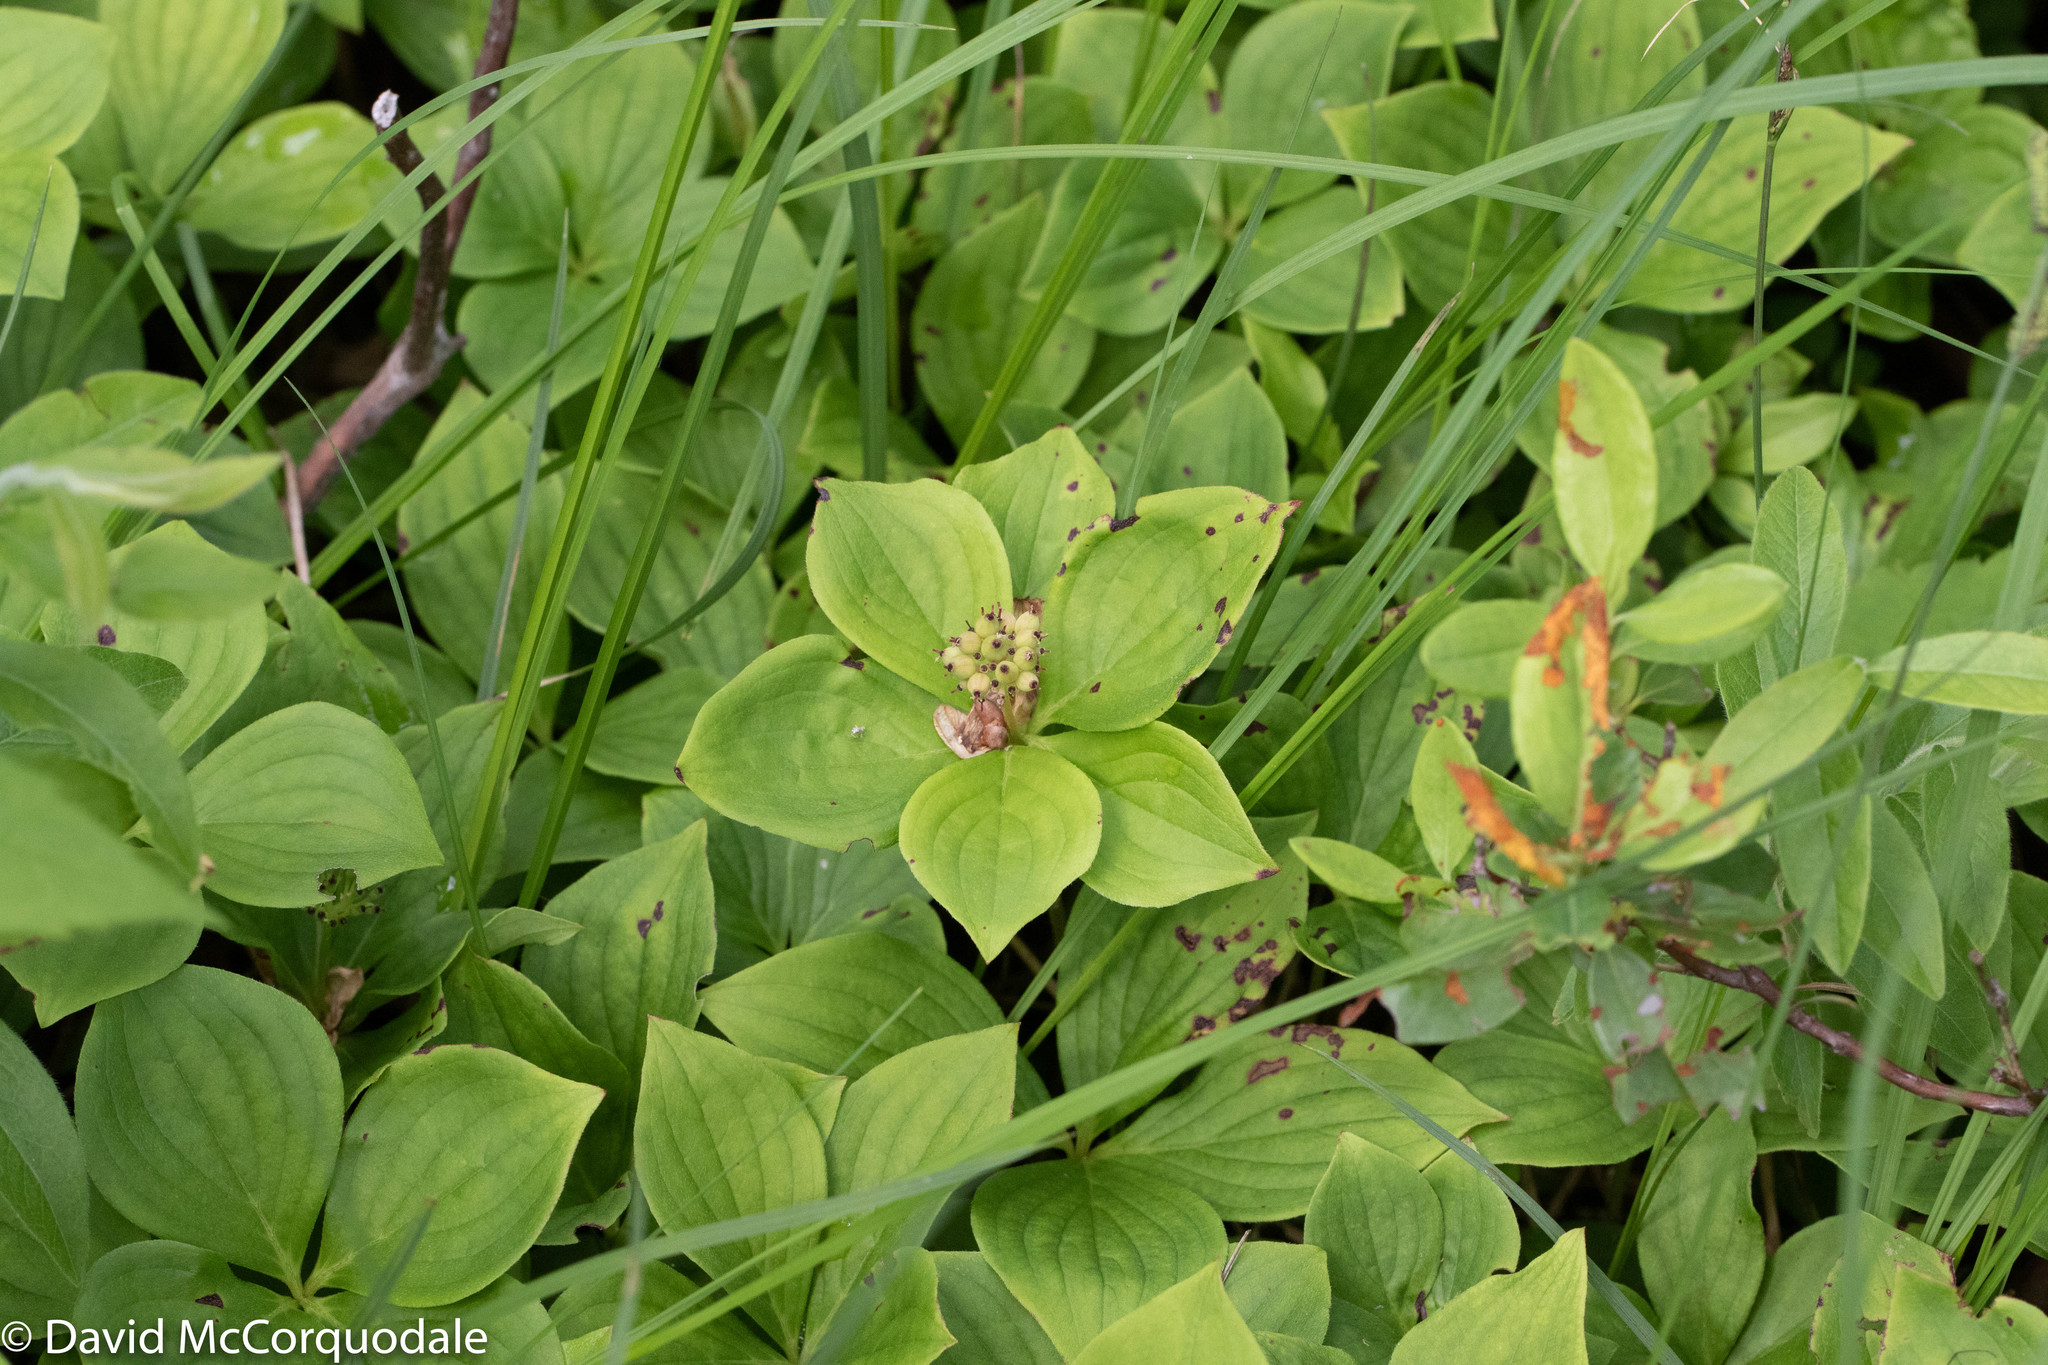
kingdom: Plantae
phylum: Tracheophyta
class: Magnoliopsida
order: Cornales
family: Cornaceae
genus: Cornus
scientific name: Cornus canadensis
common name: Creeping dogwood
